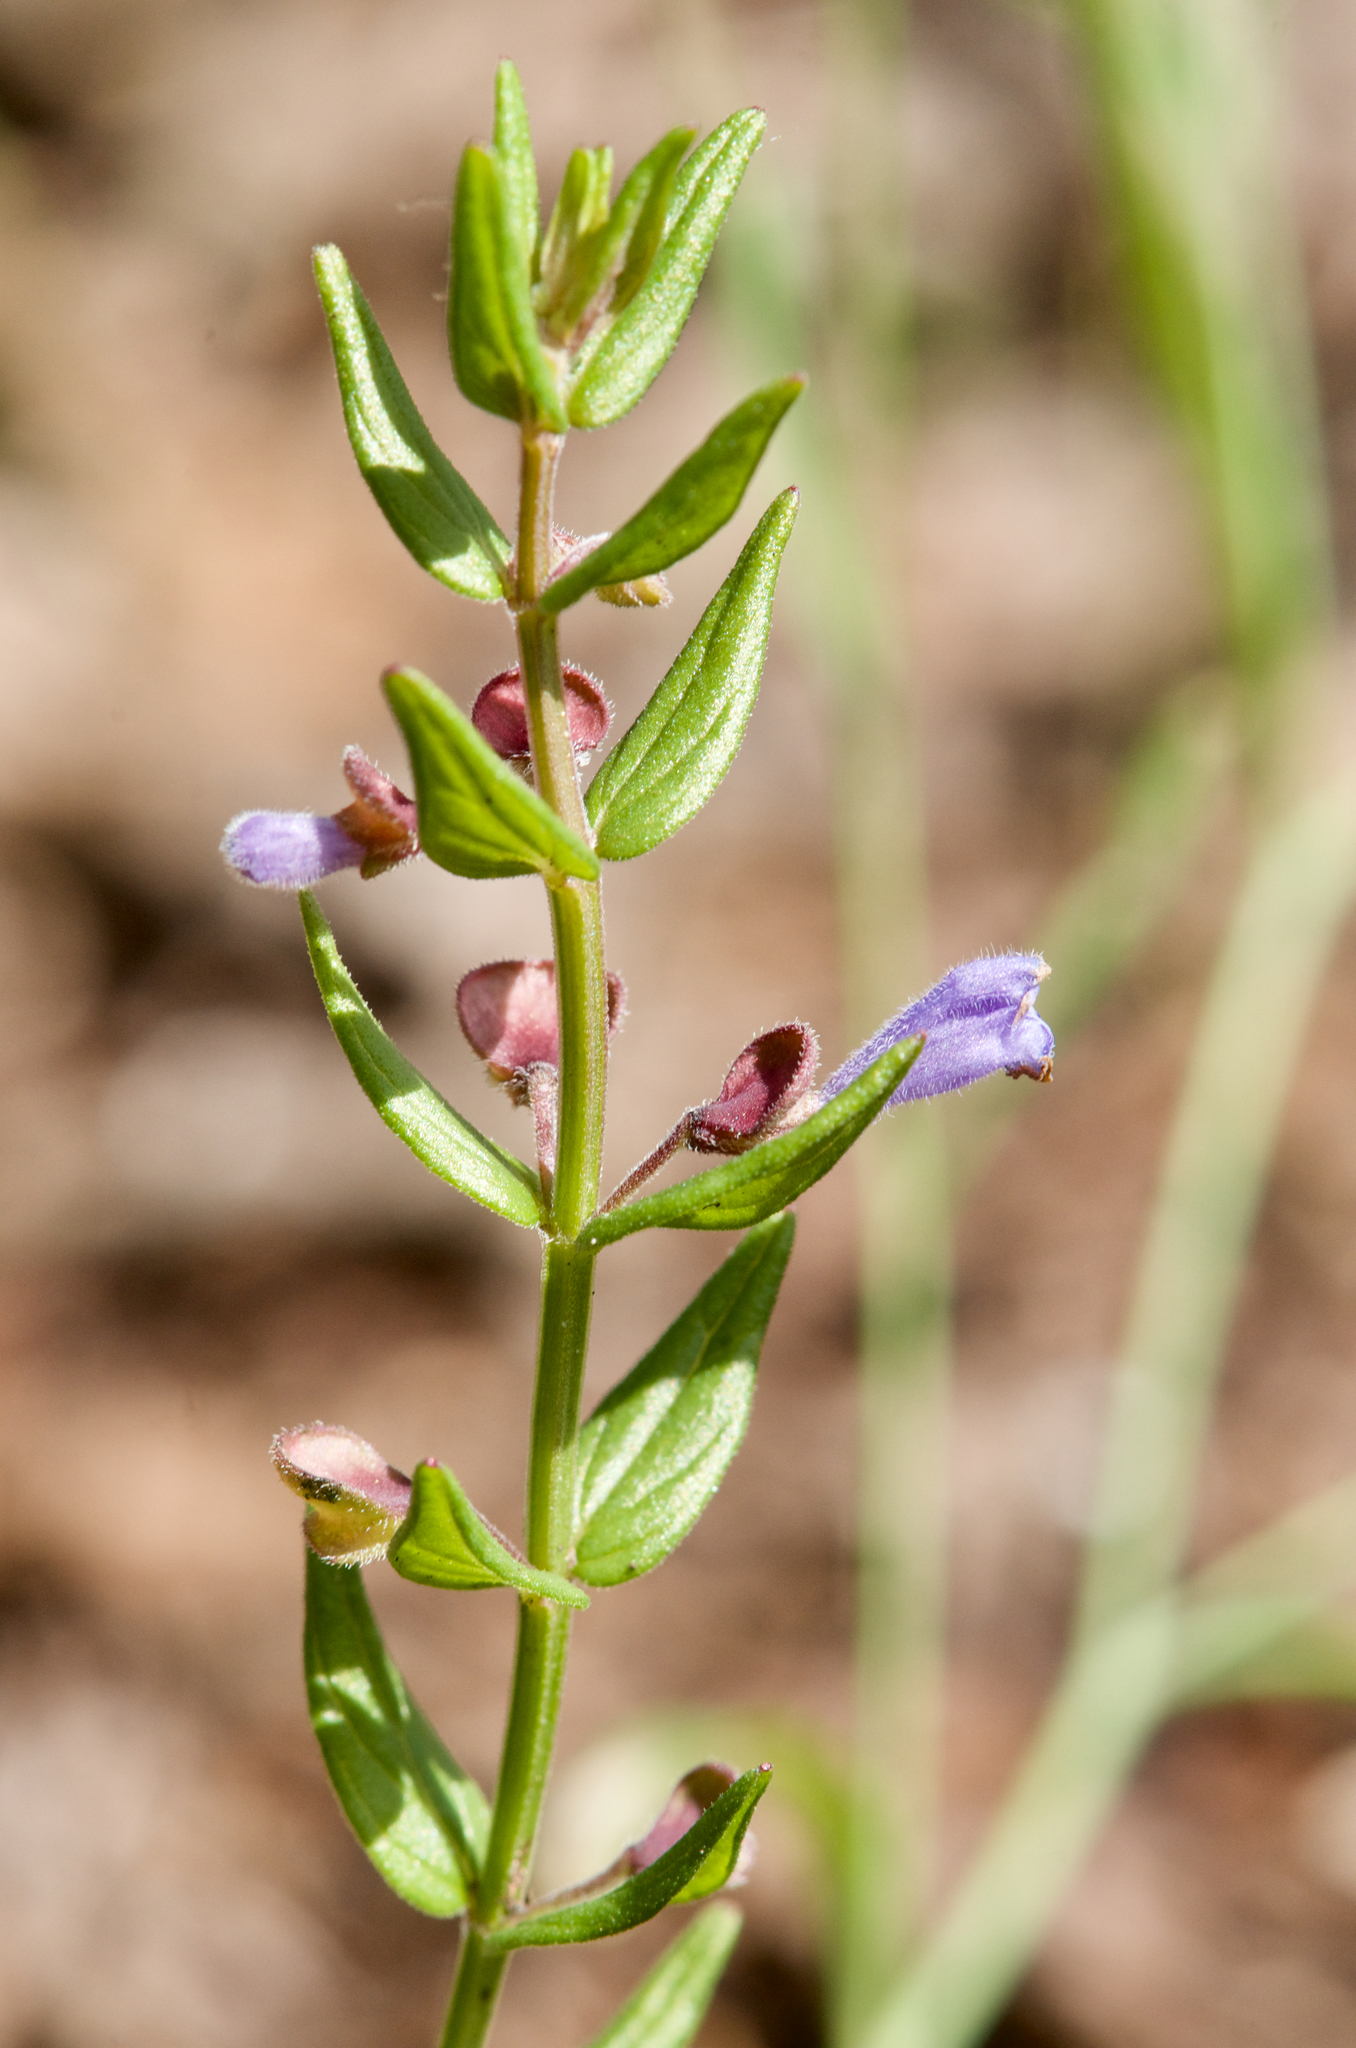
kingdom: Plantae
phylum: Tracheophyta
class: Magnoliopsida
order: Lamiales
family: Lamiaceae
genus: Scutellaria
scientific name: Scutellaria parvula
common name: Little scullcap
